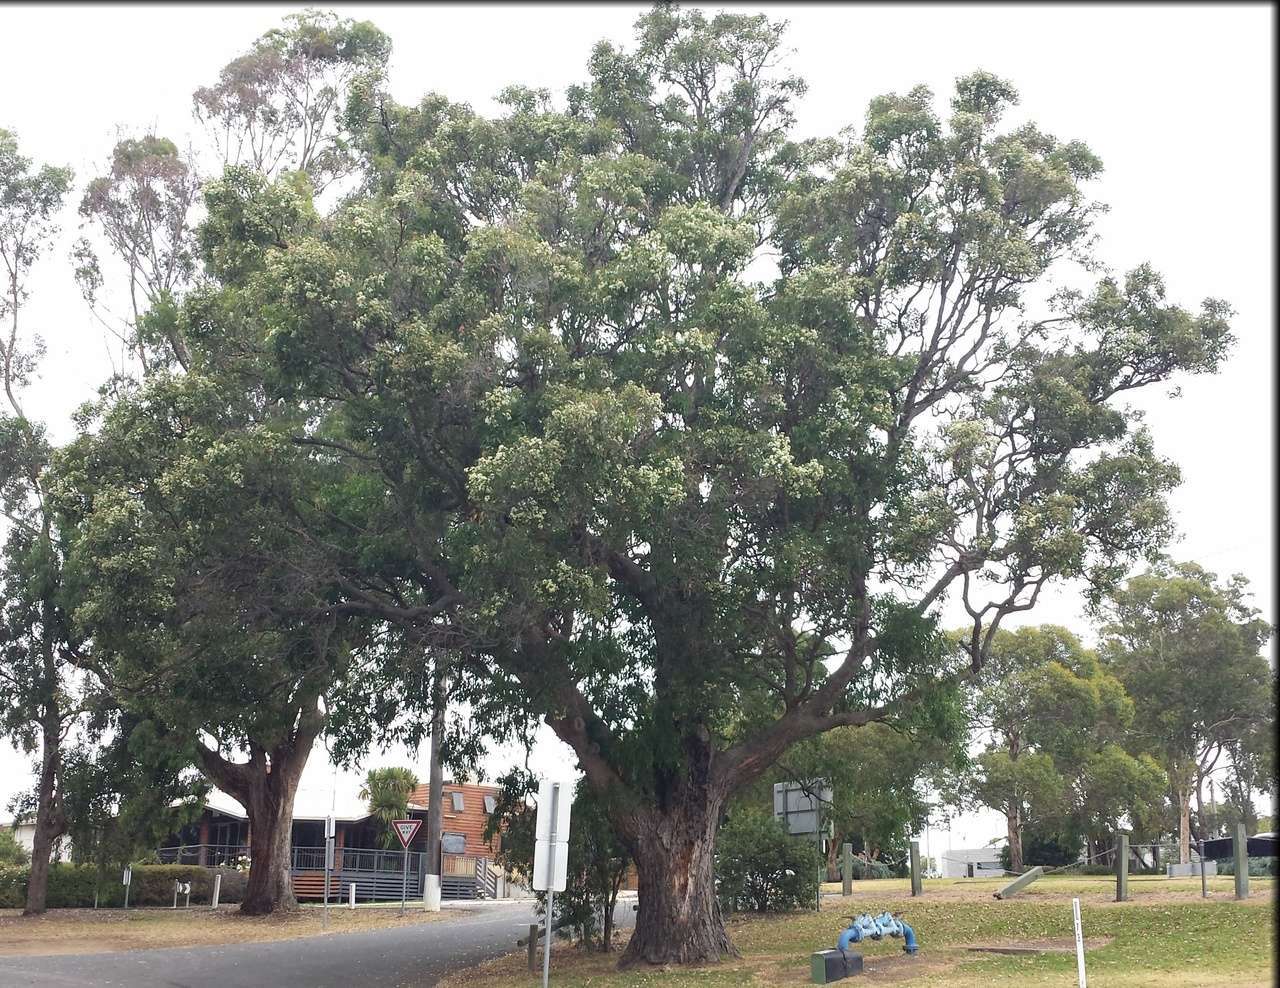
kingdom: Plantae
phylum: Tracheophyta
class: Magnoliopsida
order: Myrtales
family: Myrtaceae
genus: Angophora
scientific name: Angophora floribunda
